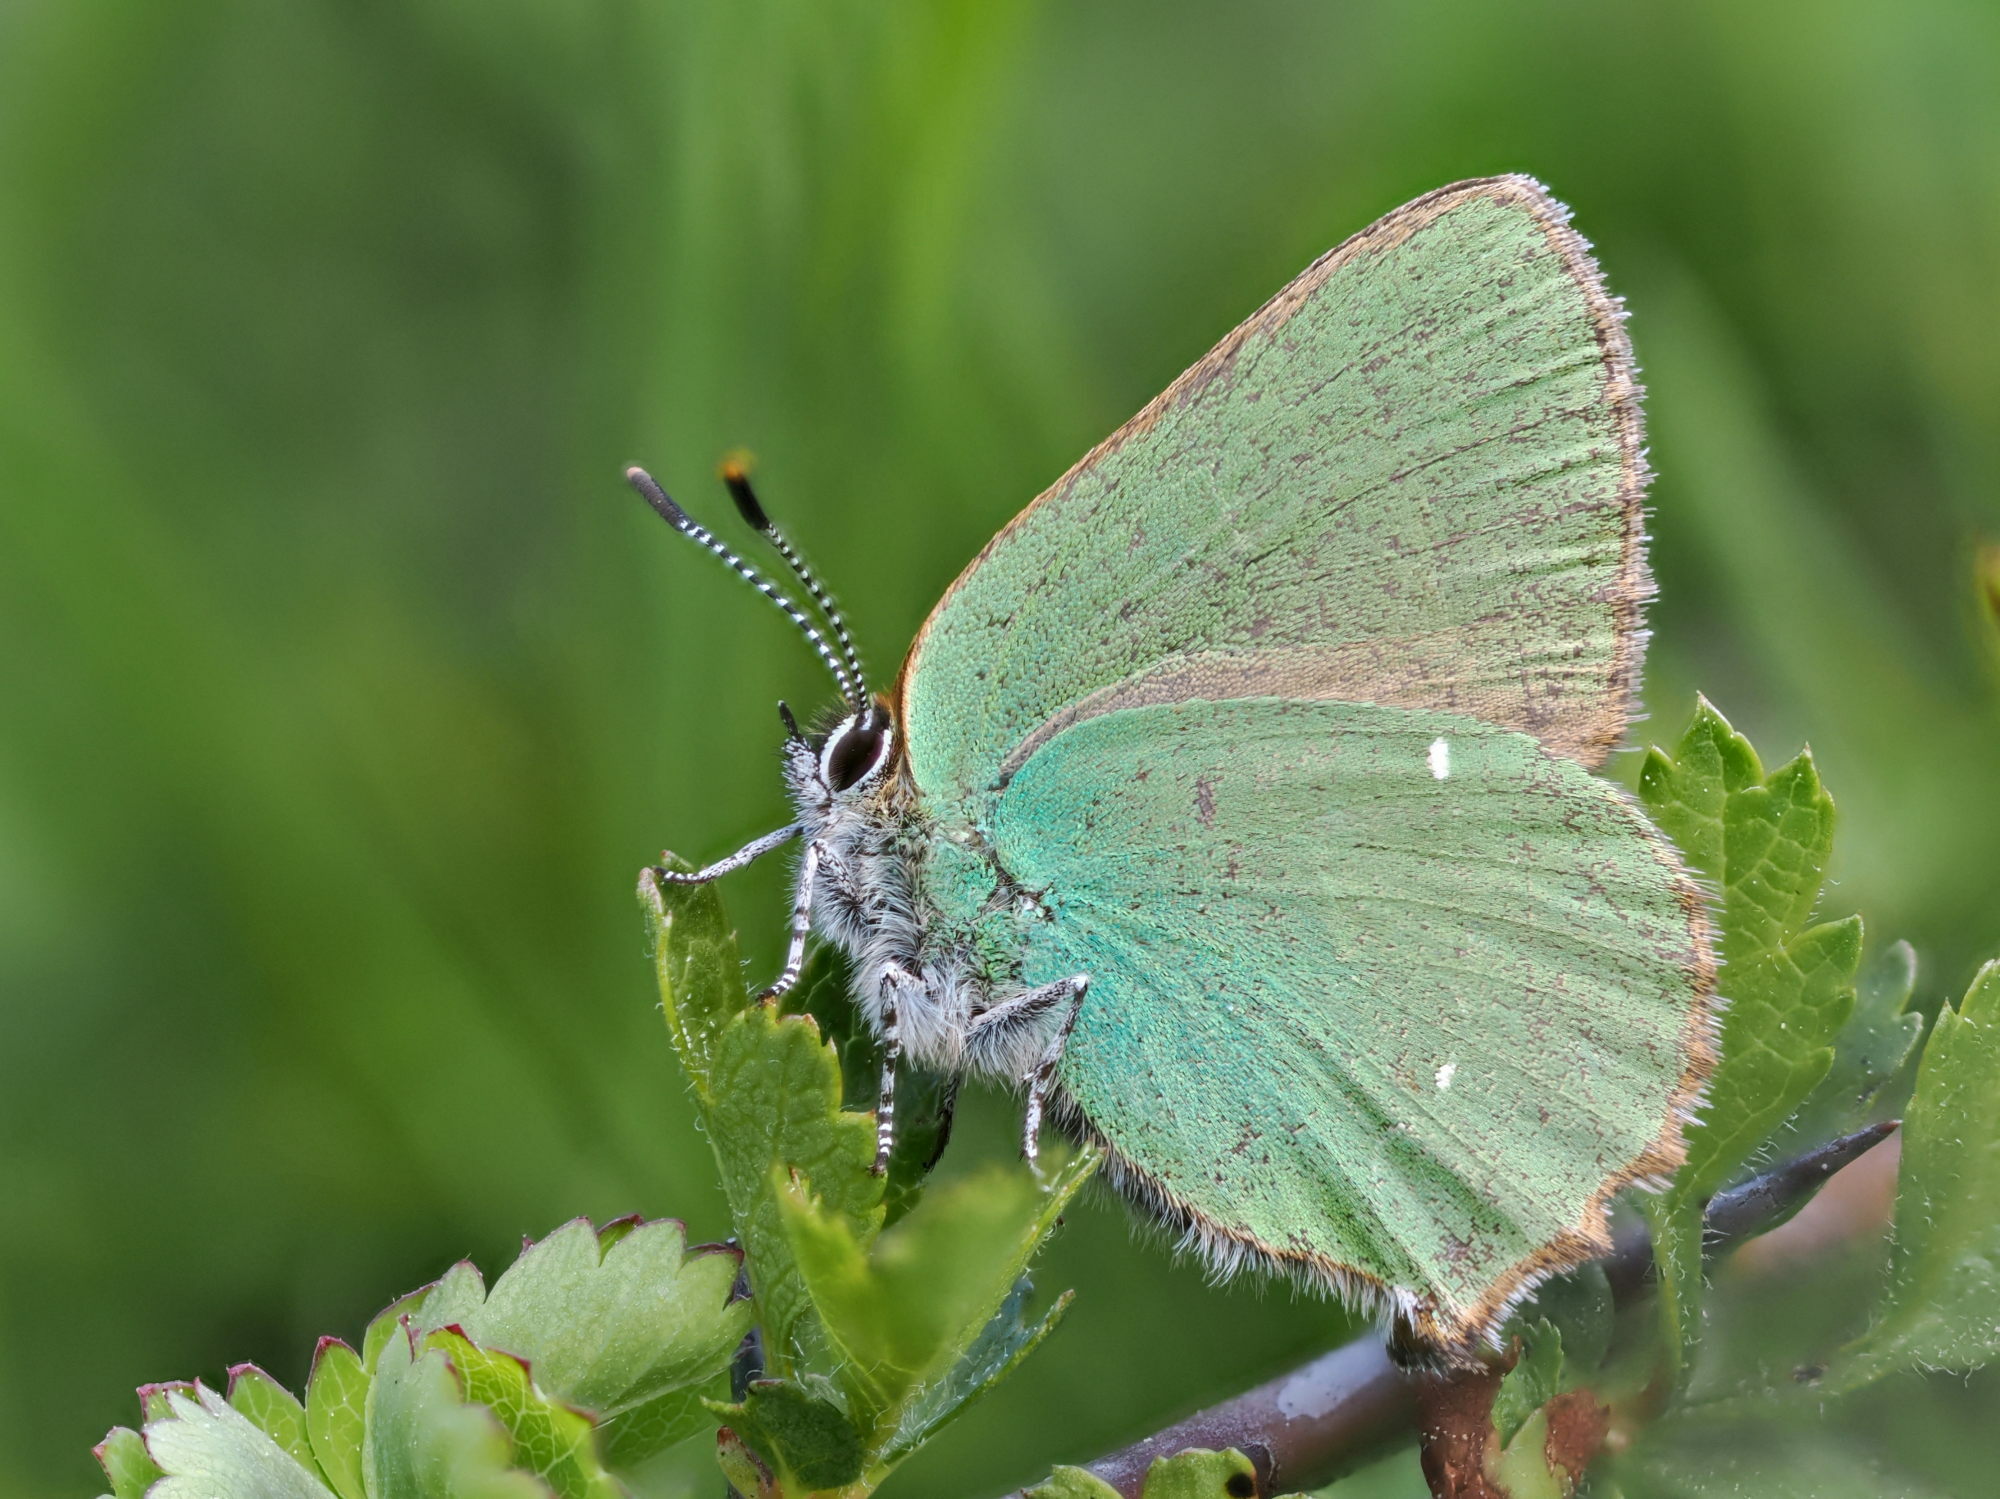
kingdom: Animalia
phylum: Arthropoda
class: Insecta
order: Lepidoptera
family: Lycaenidae
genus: Callophrys
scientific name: Callophrys rubi
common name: Green hairstreak
